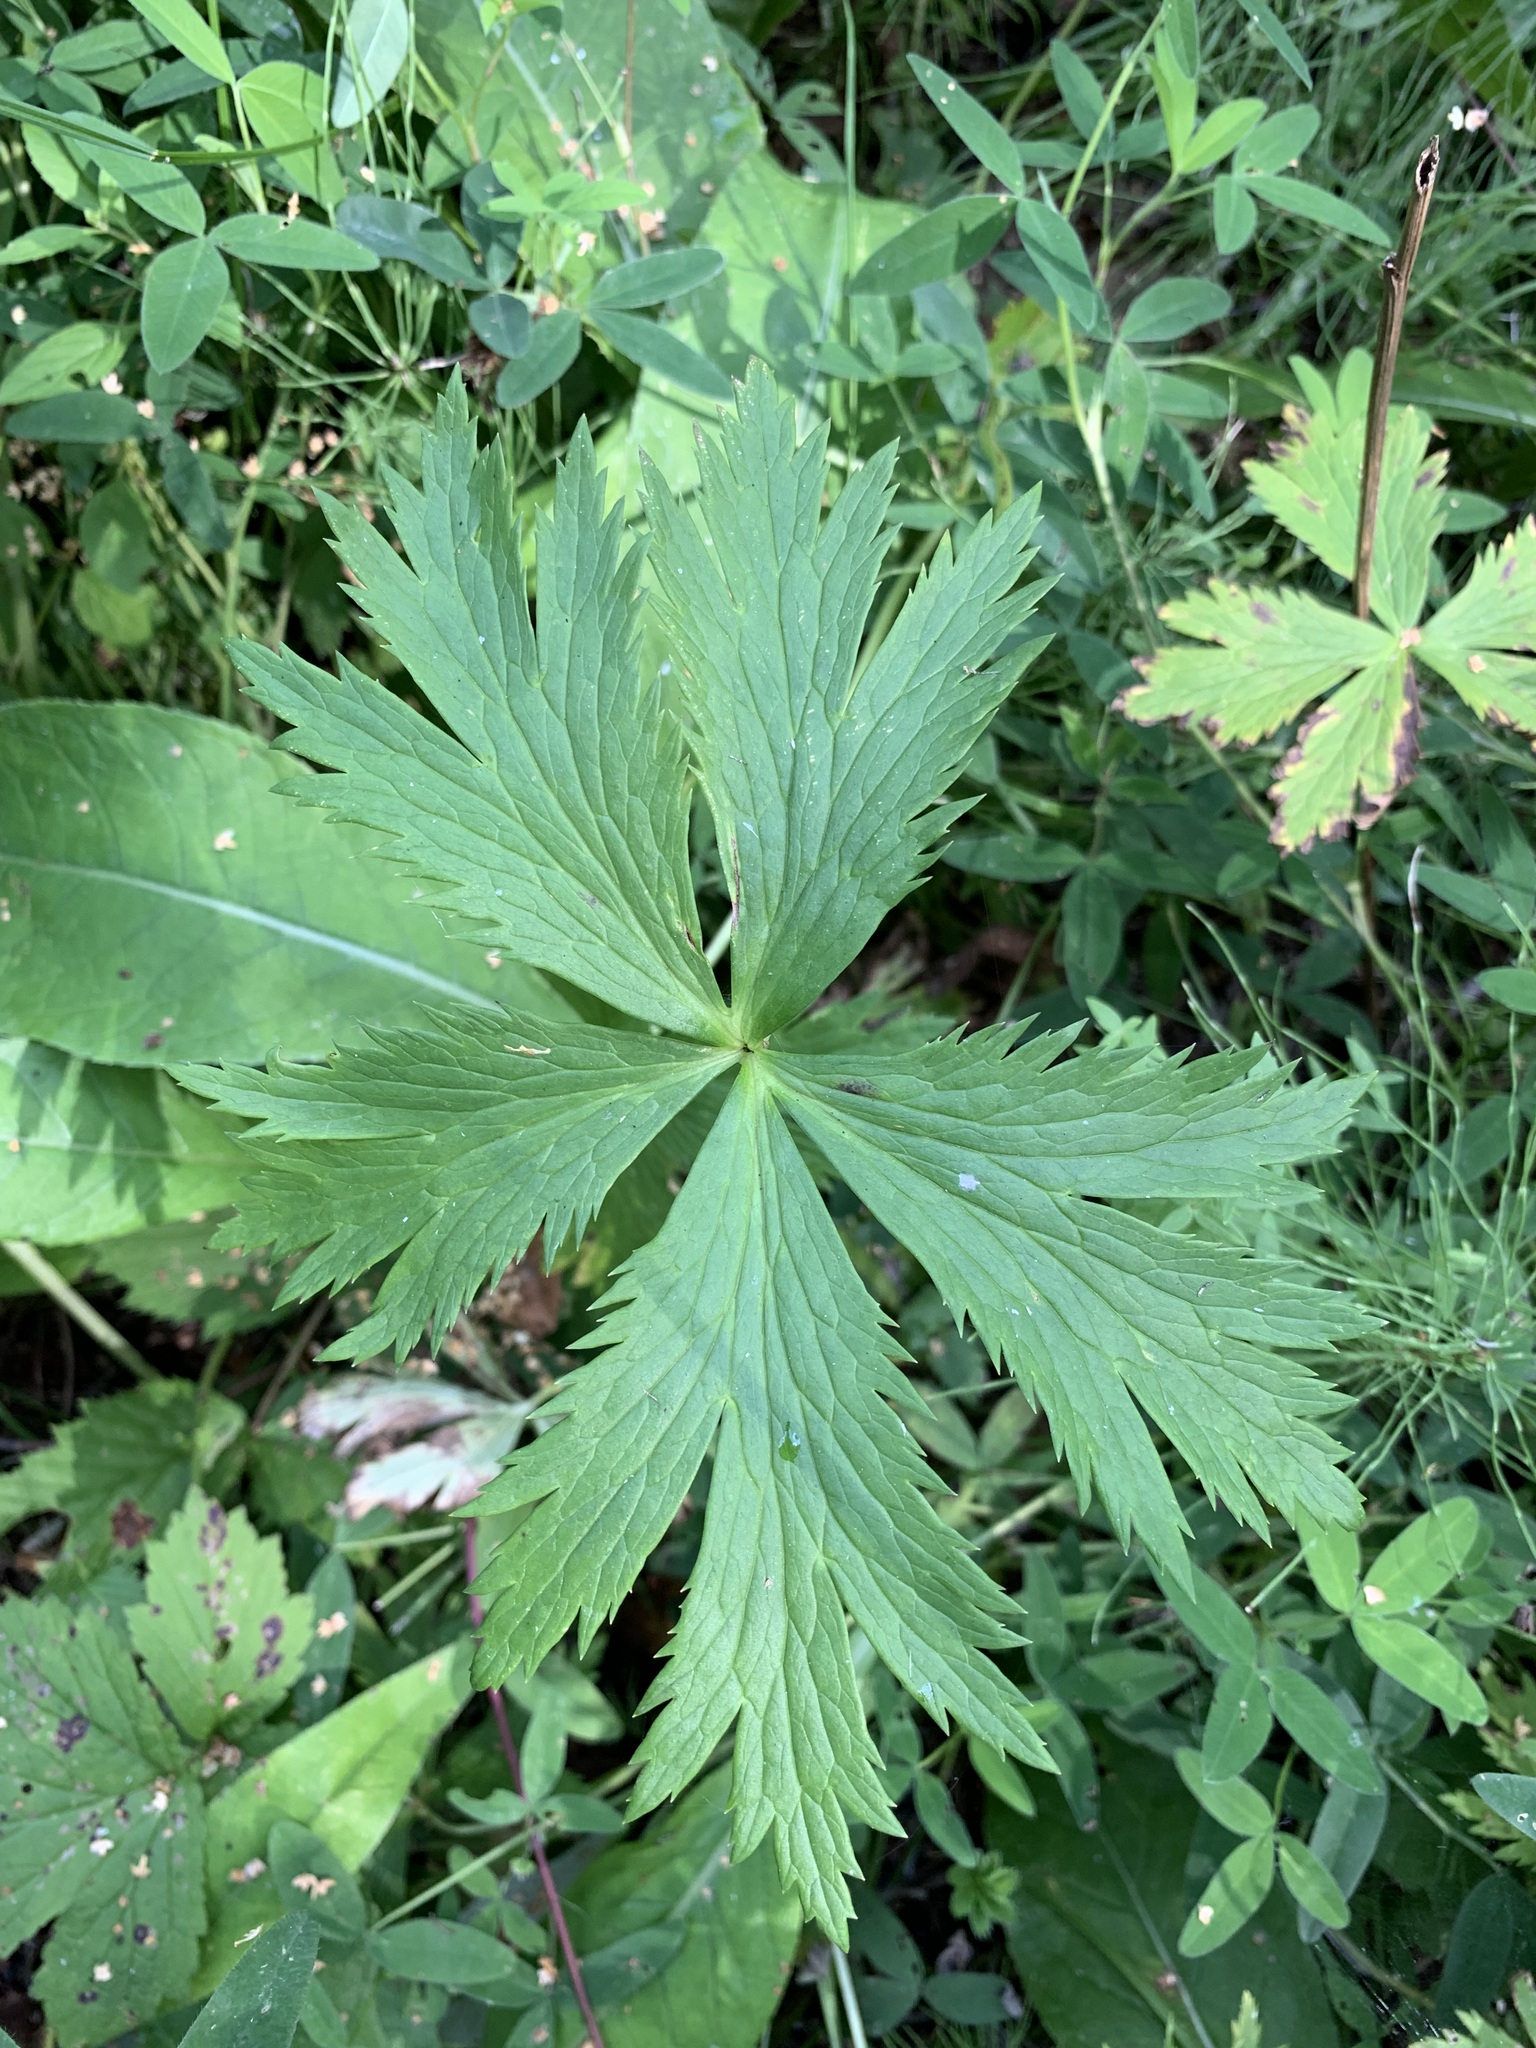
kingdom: Plantae
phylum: Tracheophyta
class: Magnoliopsida
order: Ranunculales
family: Ranunculaceae
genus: Trollius
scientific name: Trollius europaeus
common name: European globeflower
